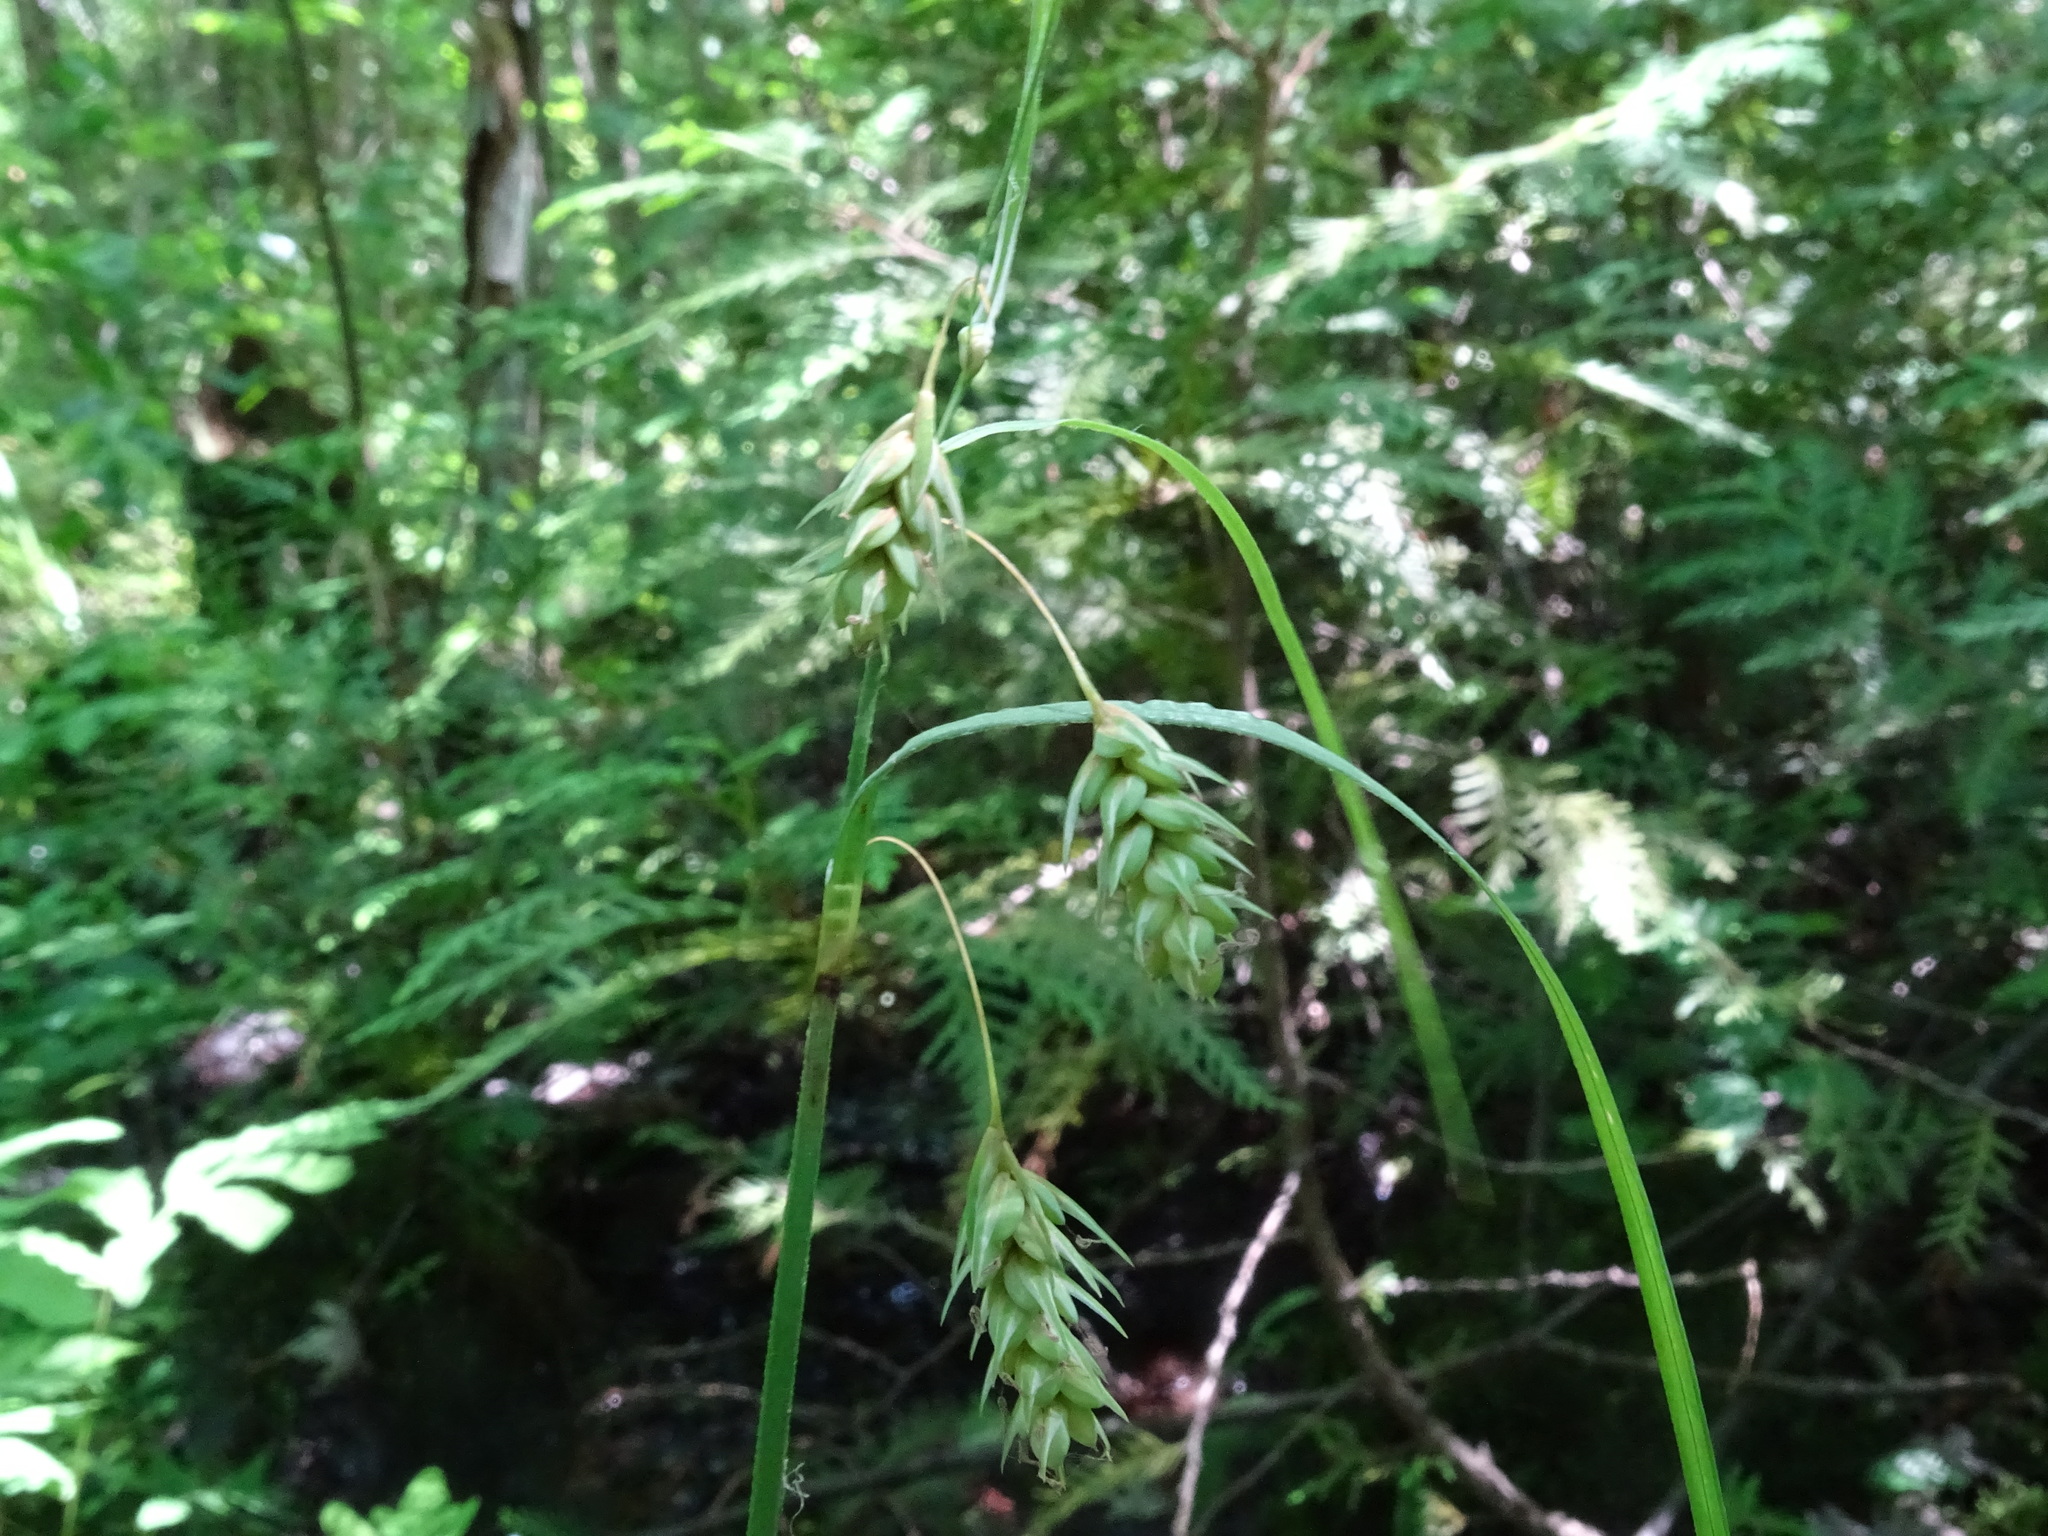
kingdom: Plantae
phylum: Tracheophyta
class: Liliopsida
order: Poales
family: Cyperaceae
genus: Carex
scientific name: Carex magellanica
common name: Bog sedge
